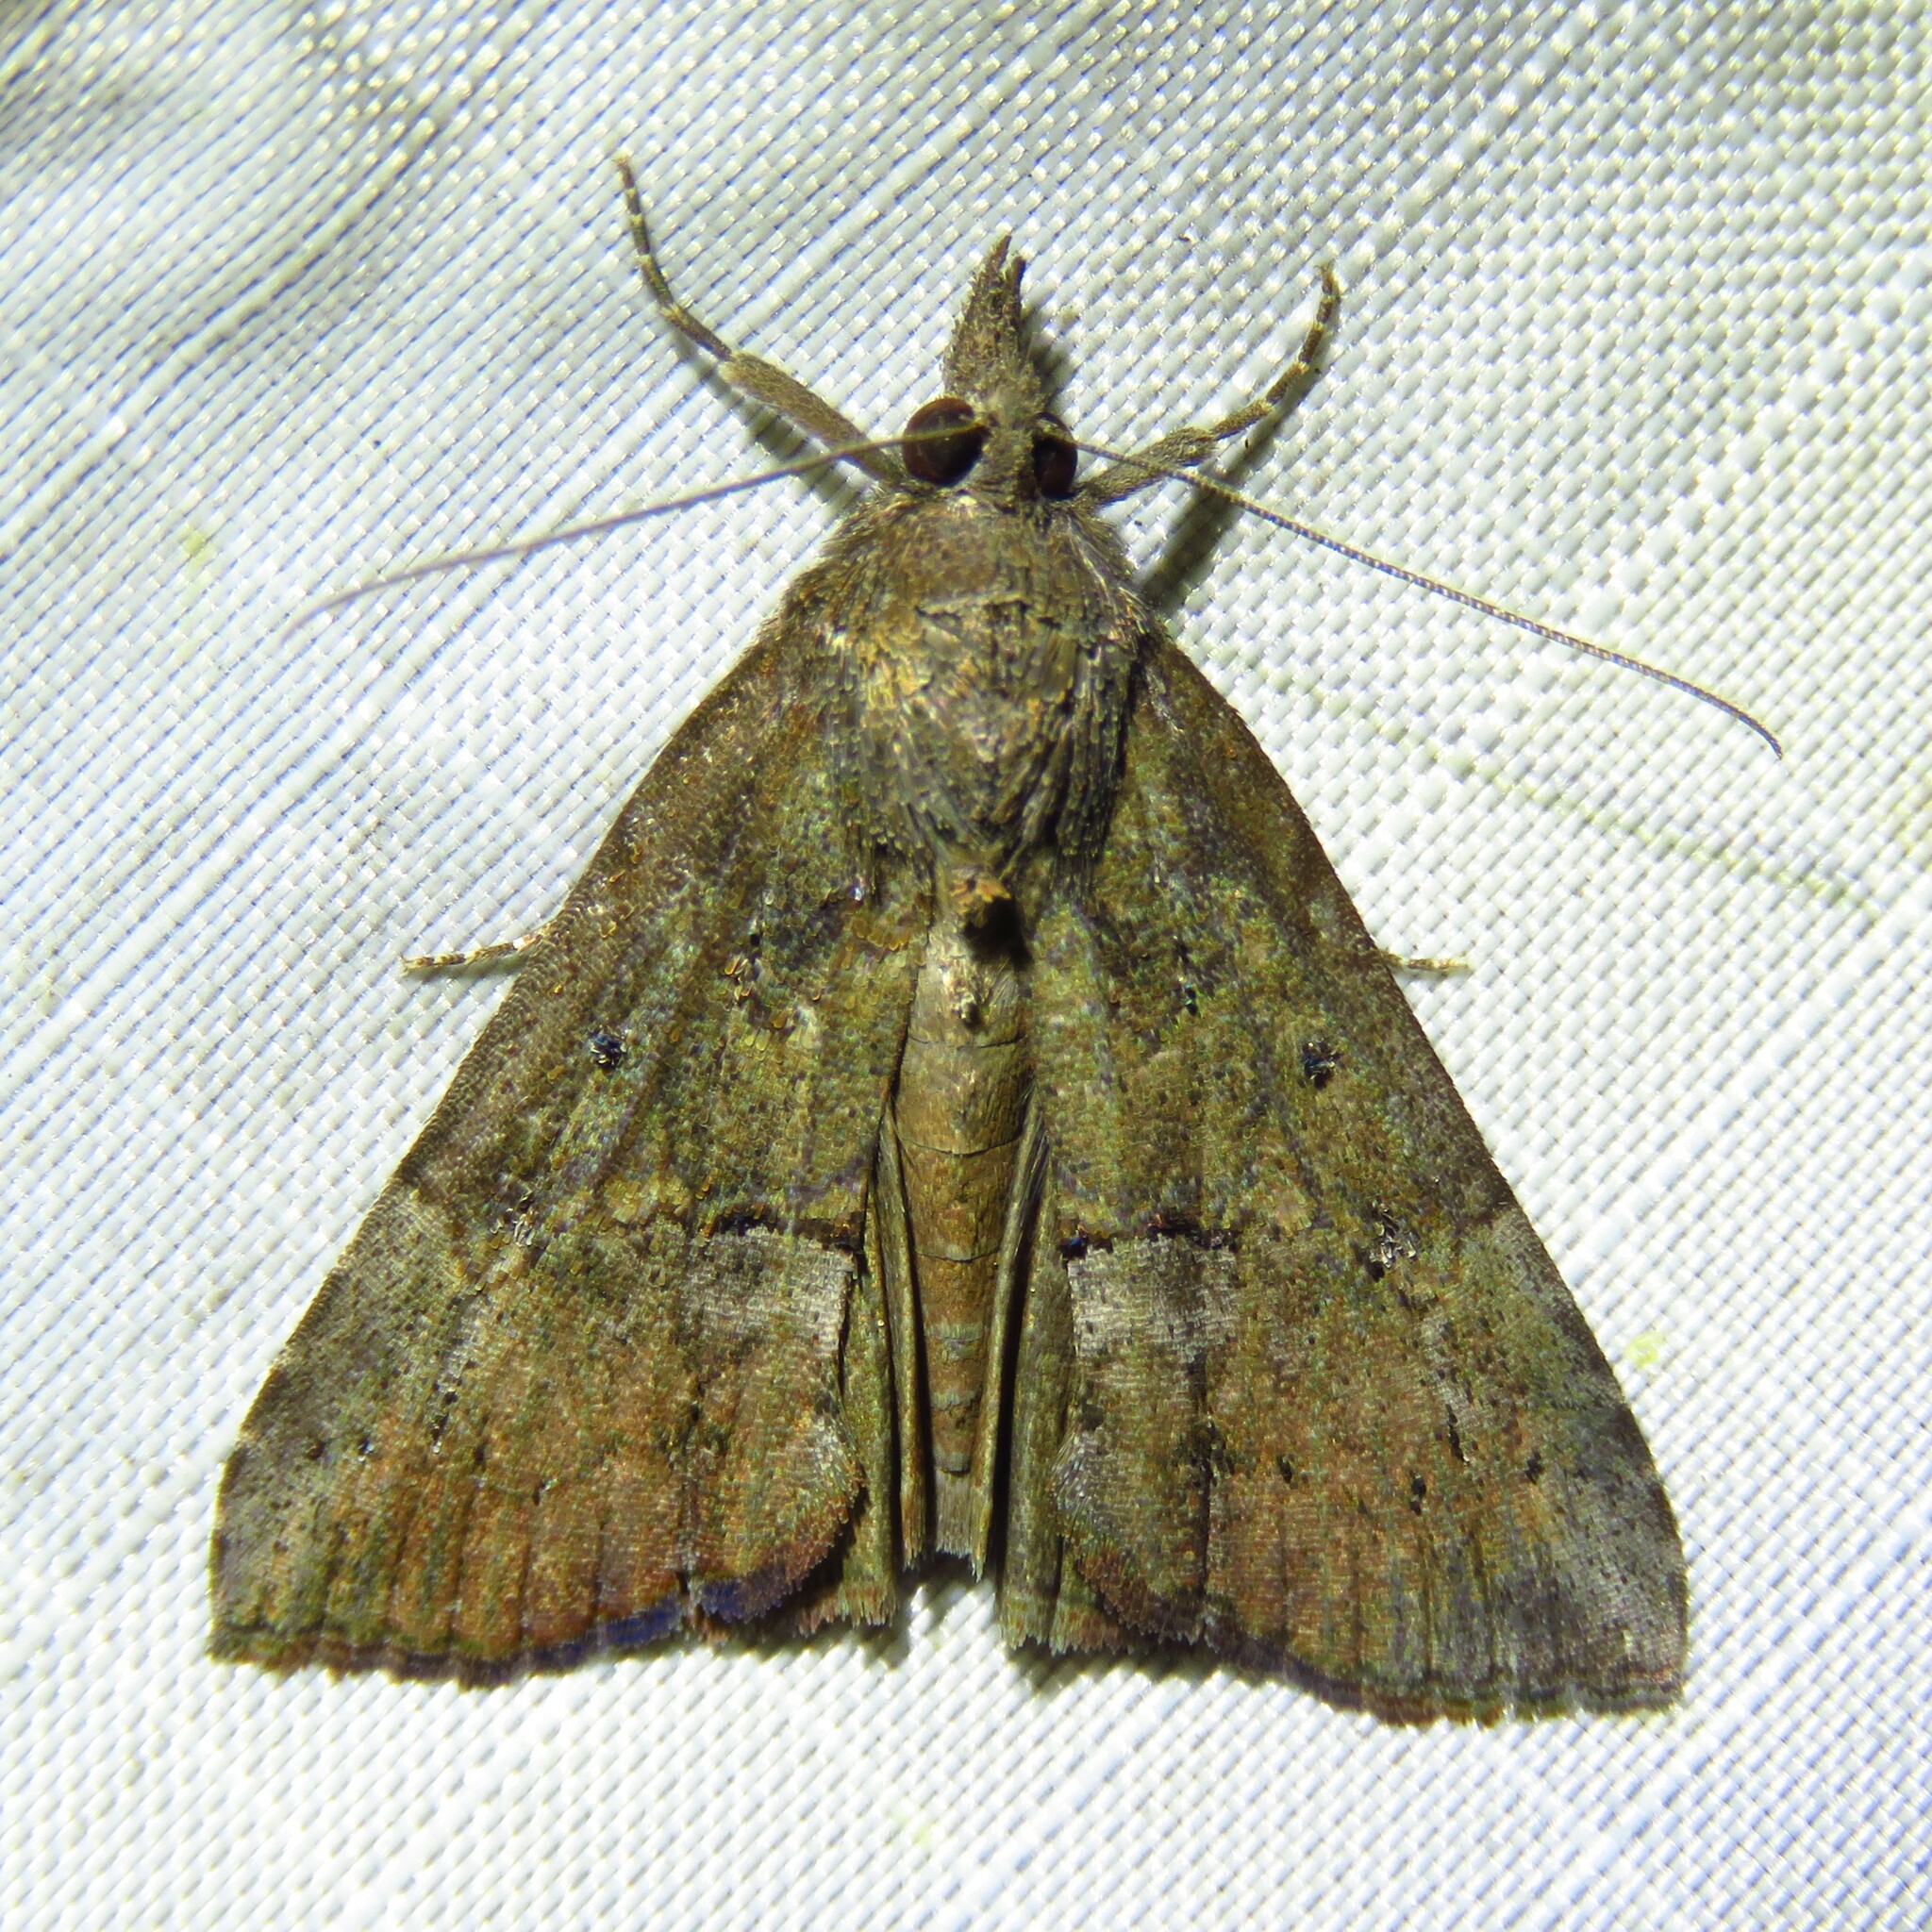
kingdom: Animalia
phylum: Arthropoda
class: Insecta
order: Lepidoptera
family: Erebidae
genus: Hypena
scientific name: Hypena scabra
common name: Green cloverworm
